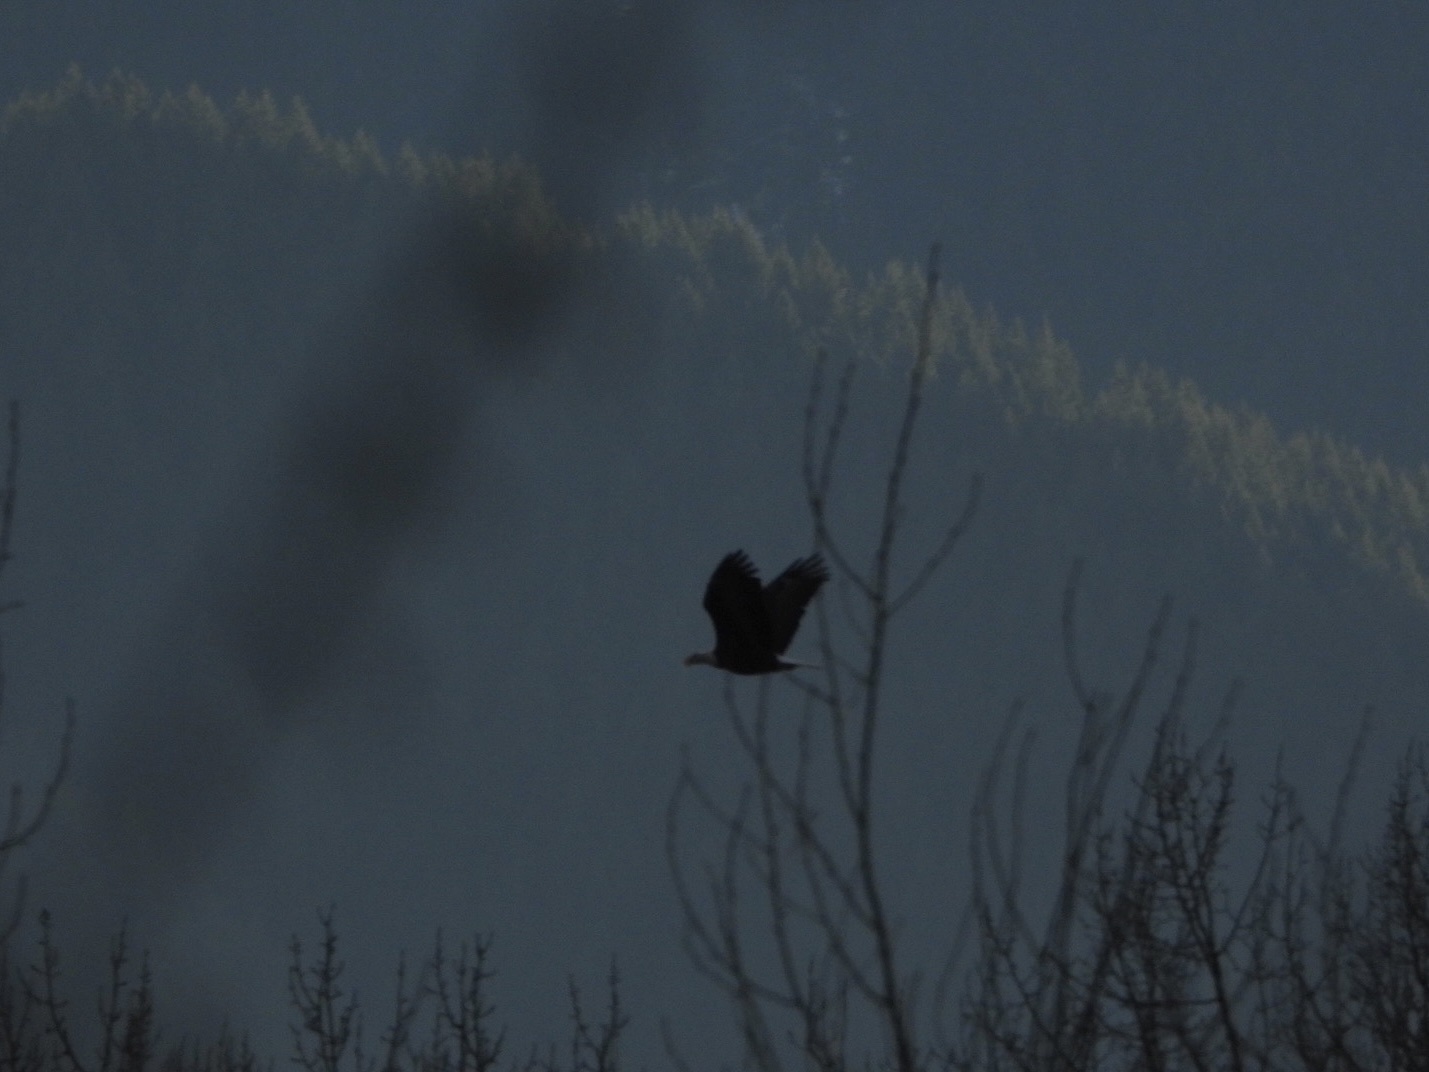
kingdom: Animalia
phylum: Chordata
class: Aves
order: Accipitriformes
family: Accipitridae
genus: Haliaeetus
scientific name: Haliaeetus leucocephalus
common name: Bald eagle
